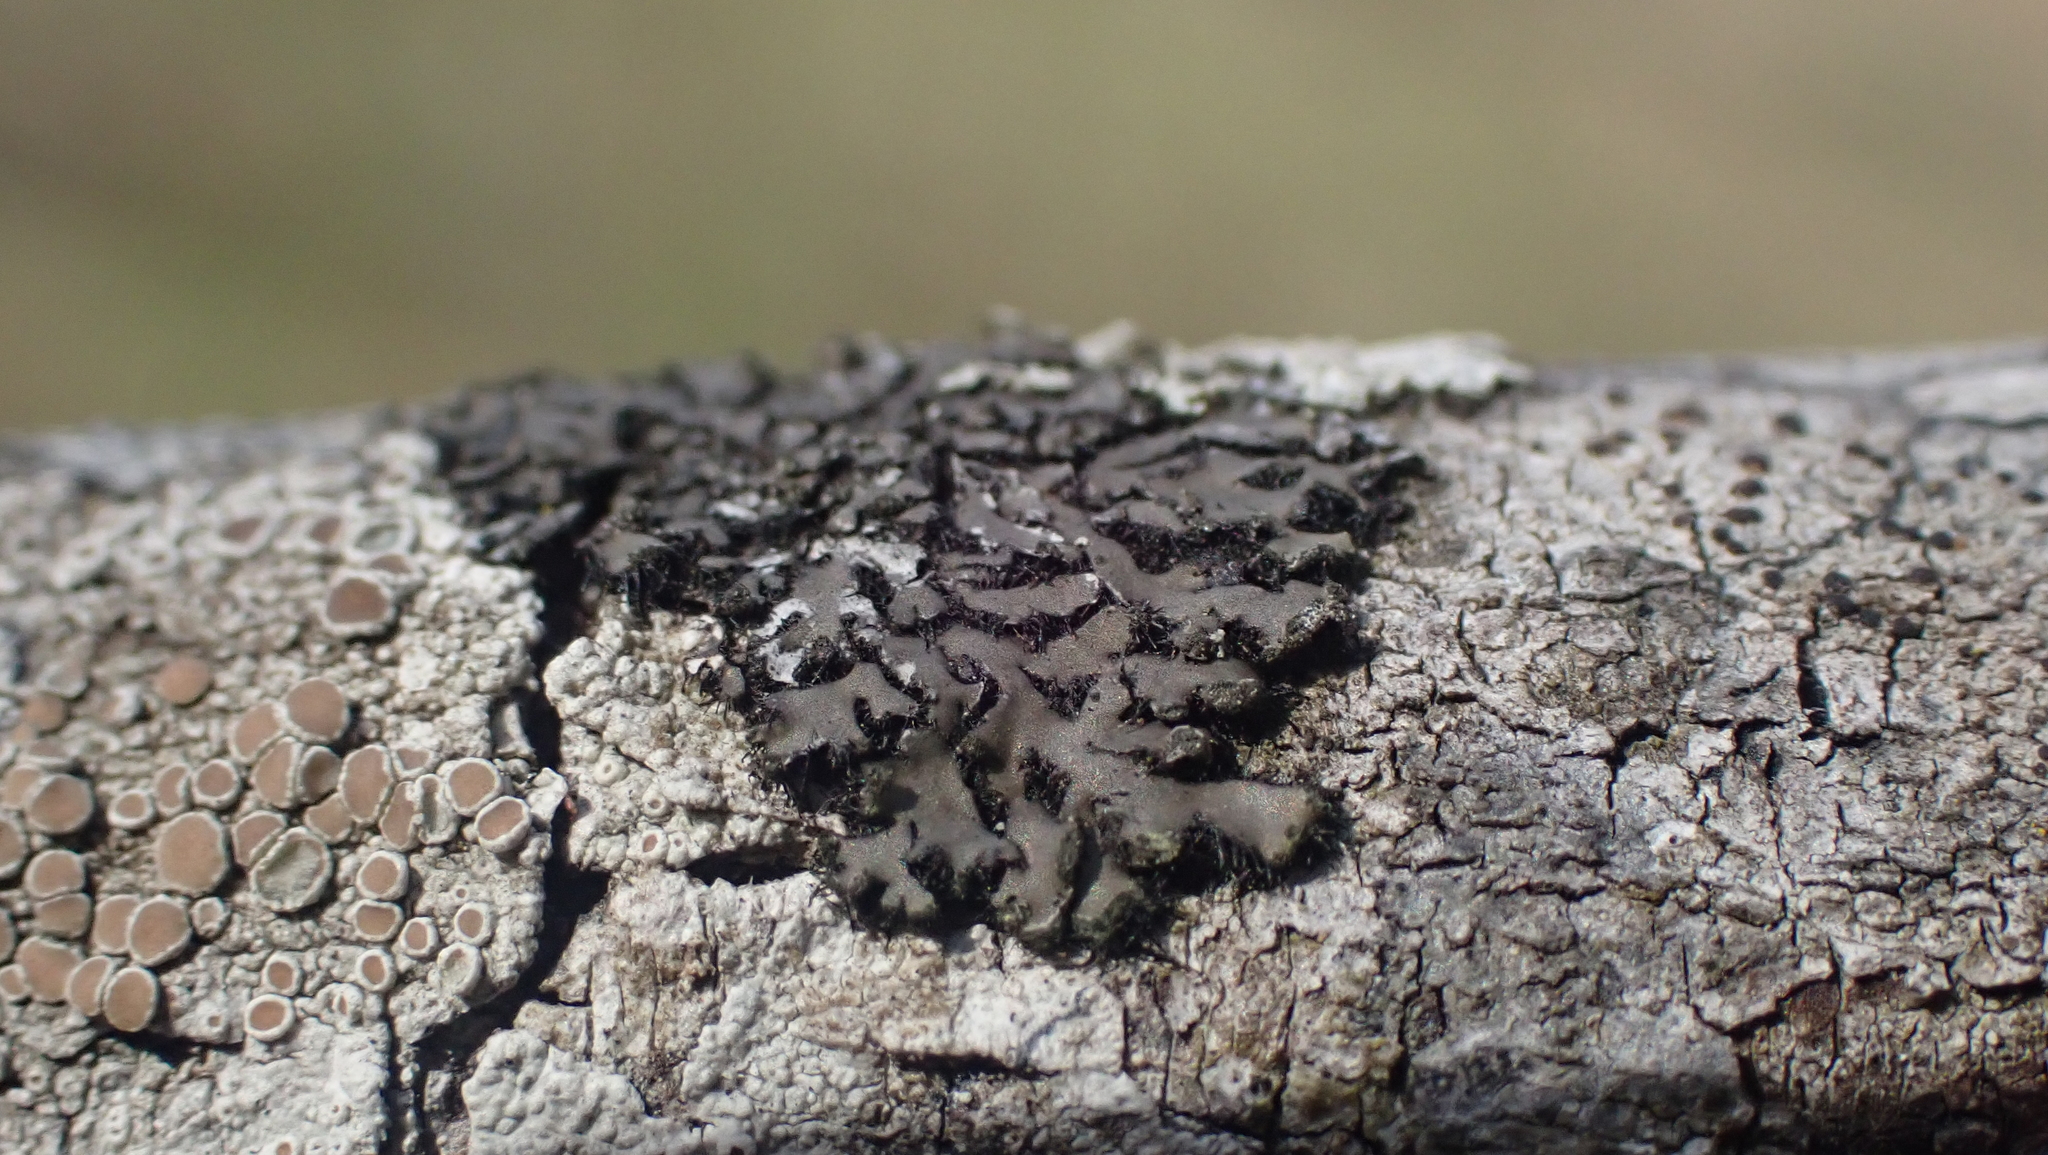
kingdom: Fungi
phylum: Ascomycota
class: Lecanoromycetes
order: Caliciales
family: Physciaceae
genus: Phaeophyscia
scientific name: Phaeophyscia rubropulchra
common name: Orange-cored shadow lichen
